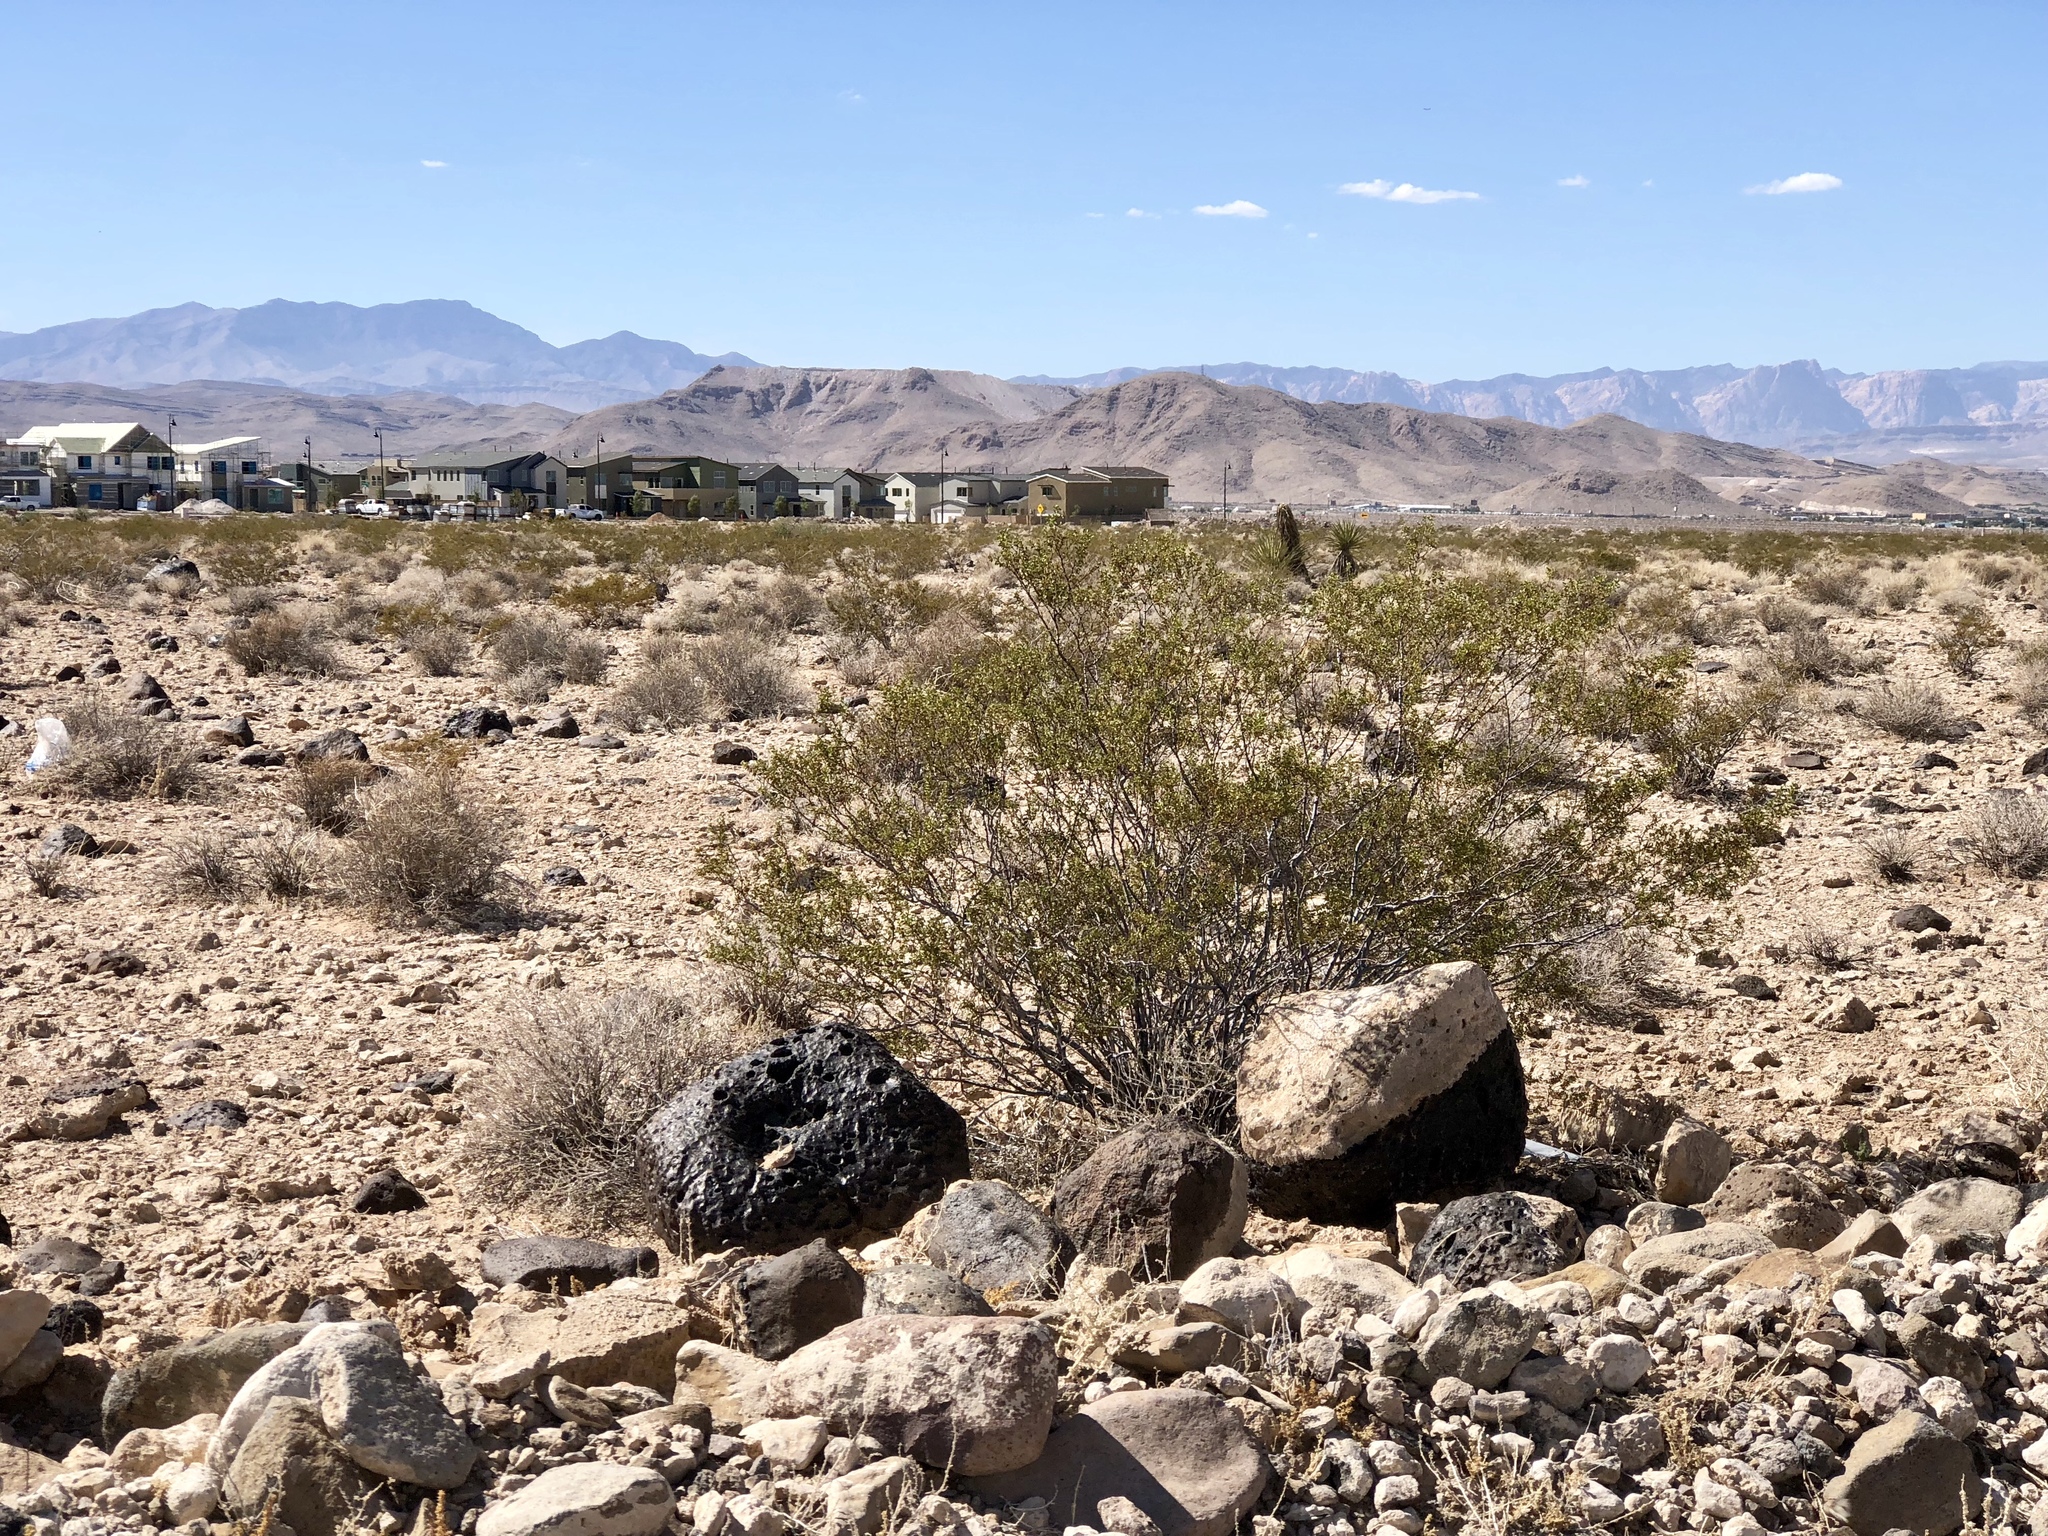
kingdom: Plantae
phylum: Tracheophyta
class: Magnoliopsida
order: Zygophyllales
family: Zygophyllaceae
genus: Larrea
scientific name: Larrea tridentata
